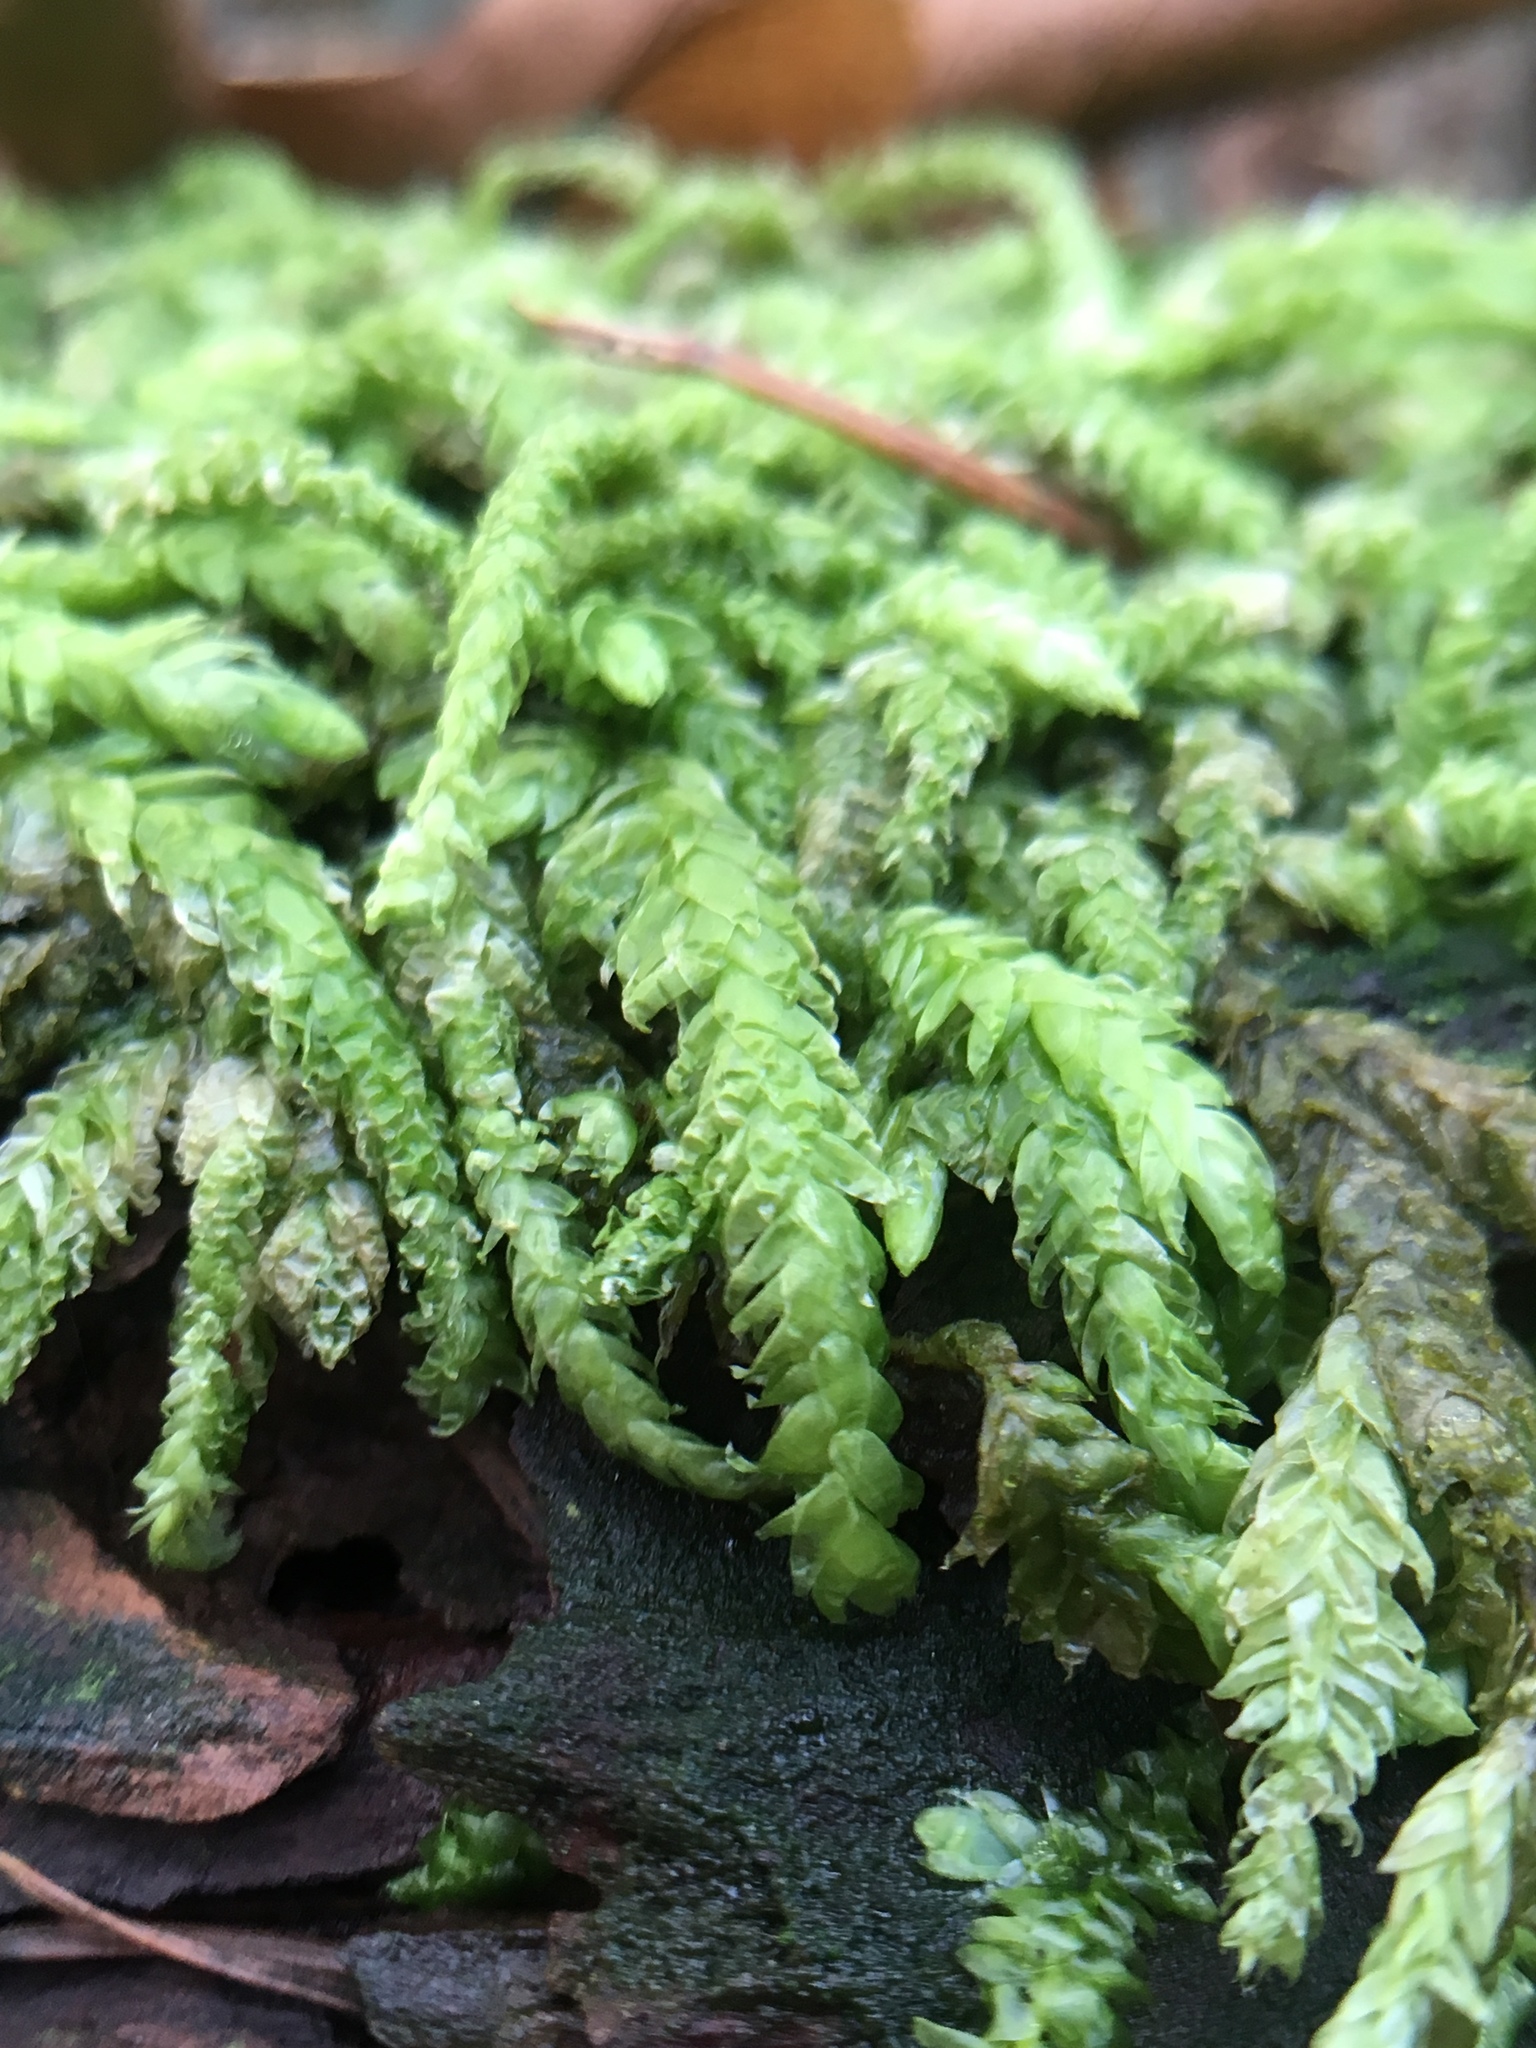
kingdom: Plantae
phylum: Bryophyta
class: Bryopsida
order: Hypnales
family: Plagiotheciaceae
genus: Plagiothecium
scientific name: Plagiothecium undulatum
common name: Waved silk-moss
